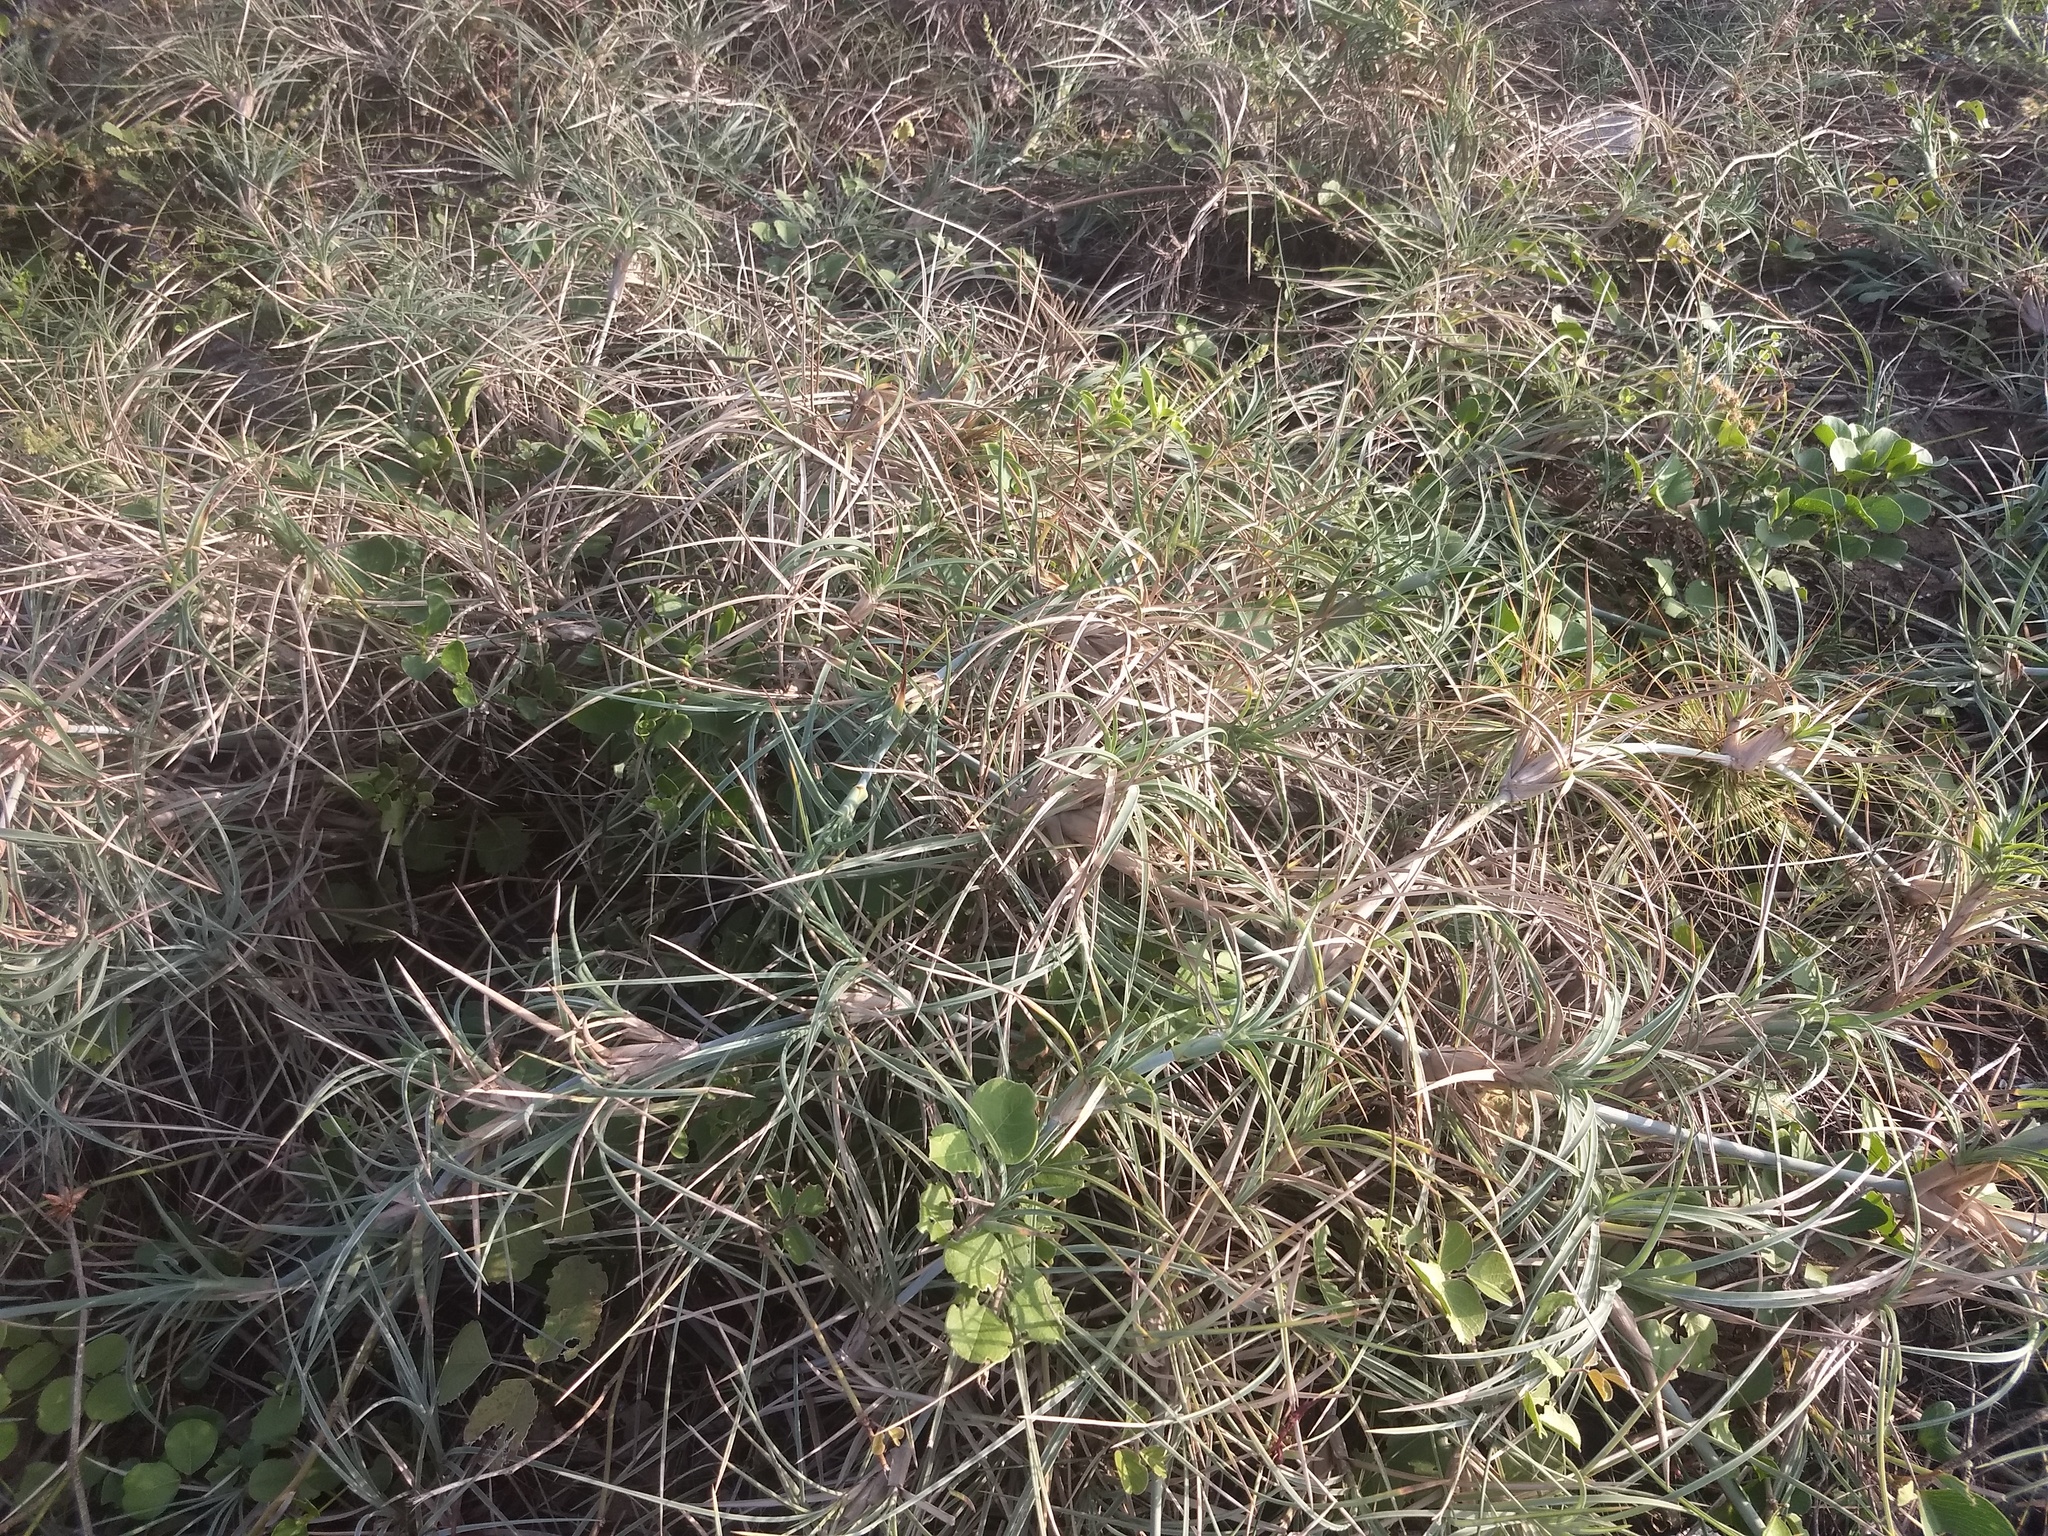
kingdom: Plantae
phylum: Tracheophyta
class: Liliopsida
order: Poales
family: Poaceae
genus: Spinifex
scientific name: Spinifex littoreus
